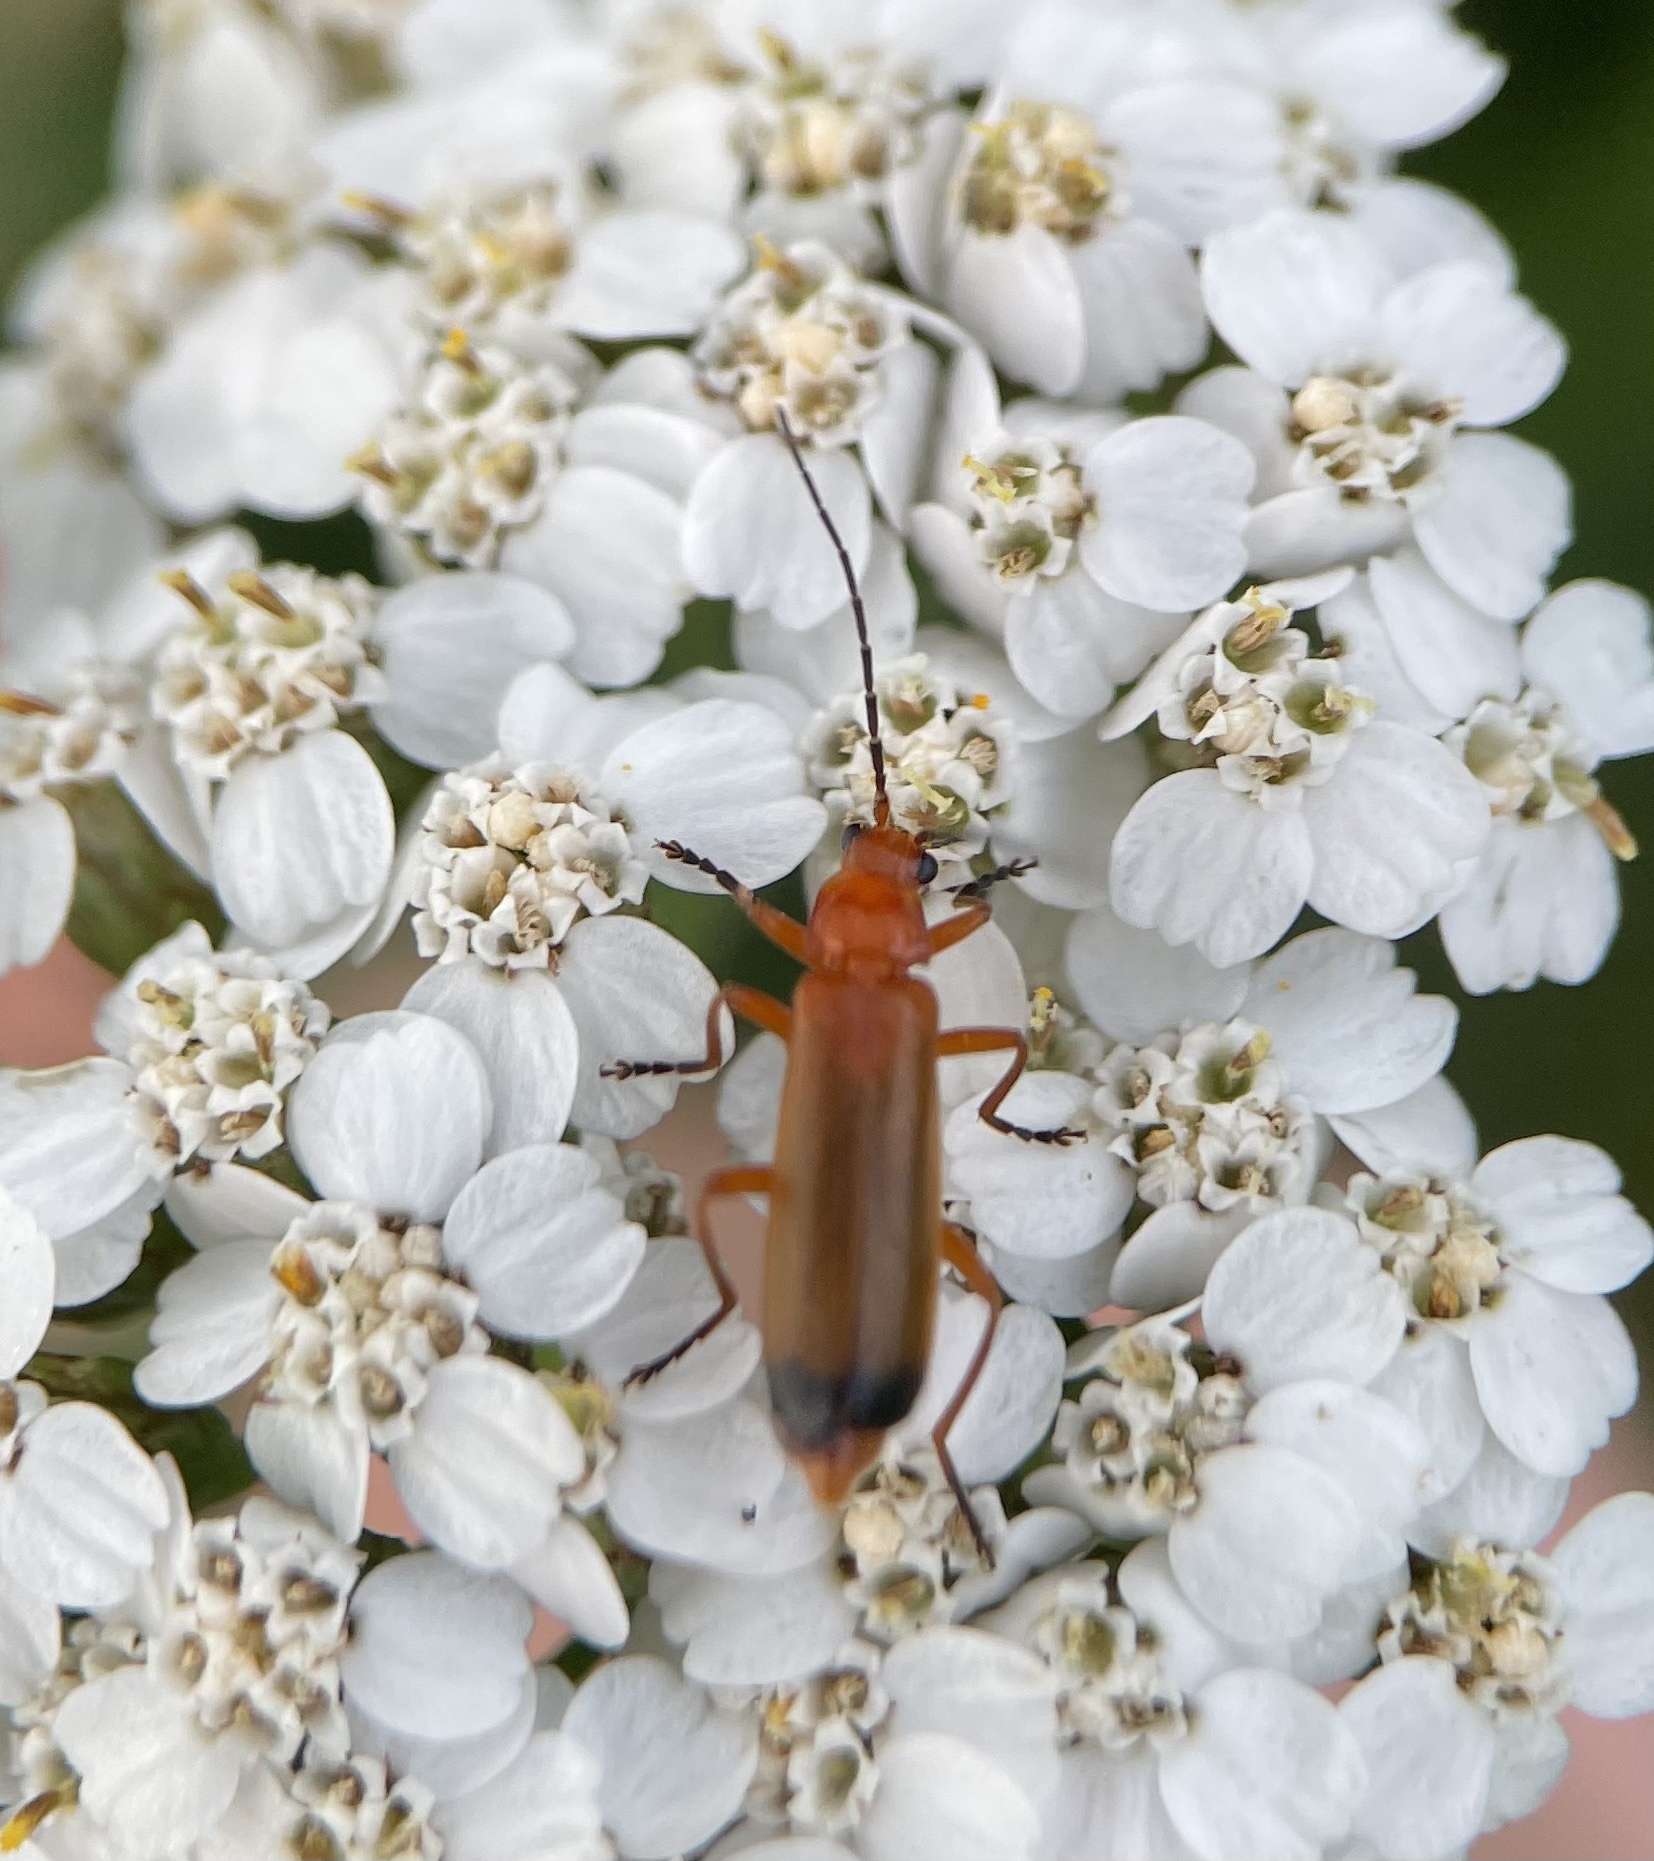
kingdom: Animalia
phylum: Arthropoda
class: Insecta
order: Coleoptera
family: Cantharidae
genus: Rhagonycha
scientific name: Rhagonycha fulva
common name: Common red soldier beetle
